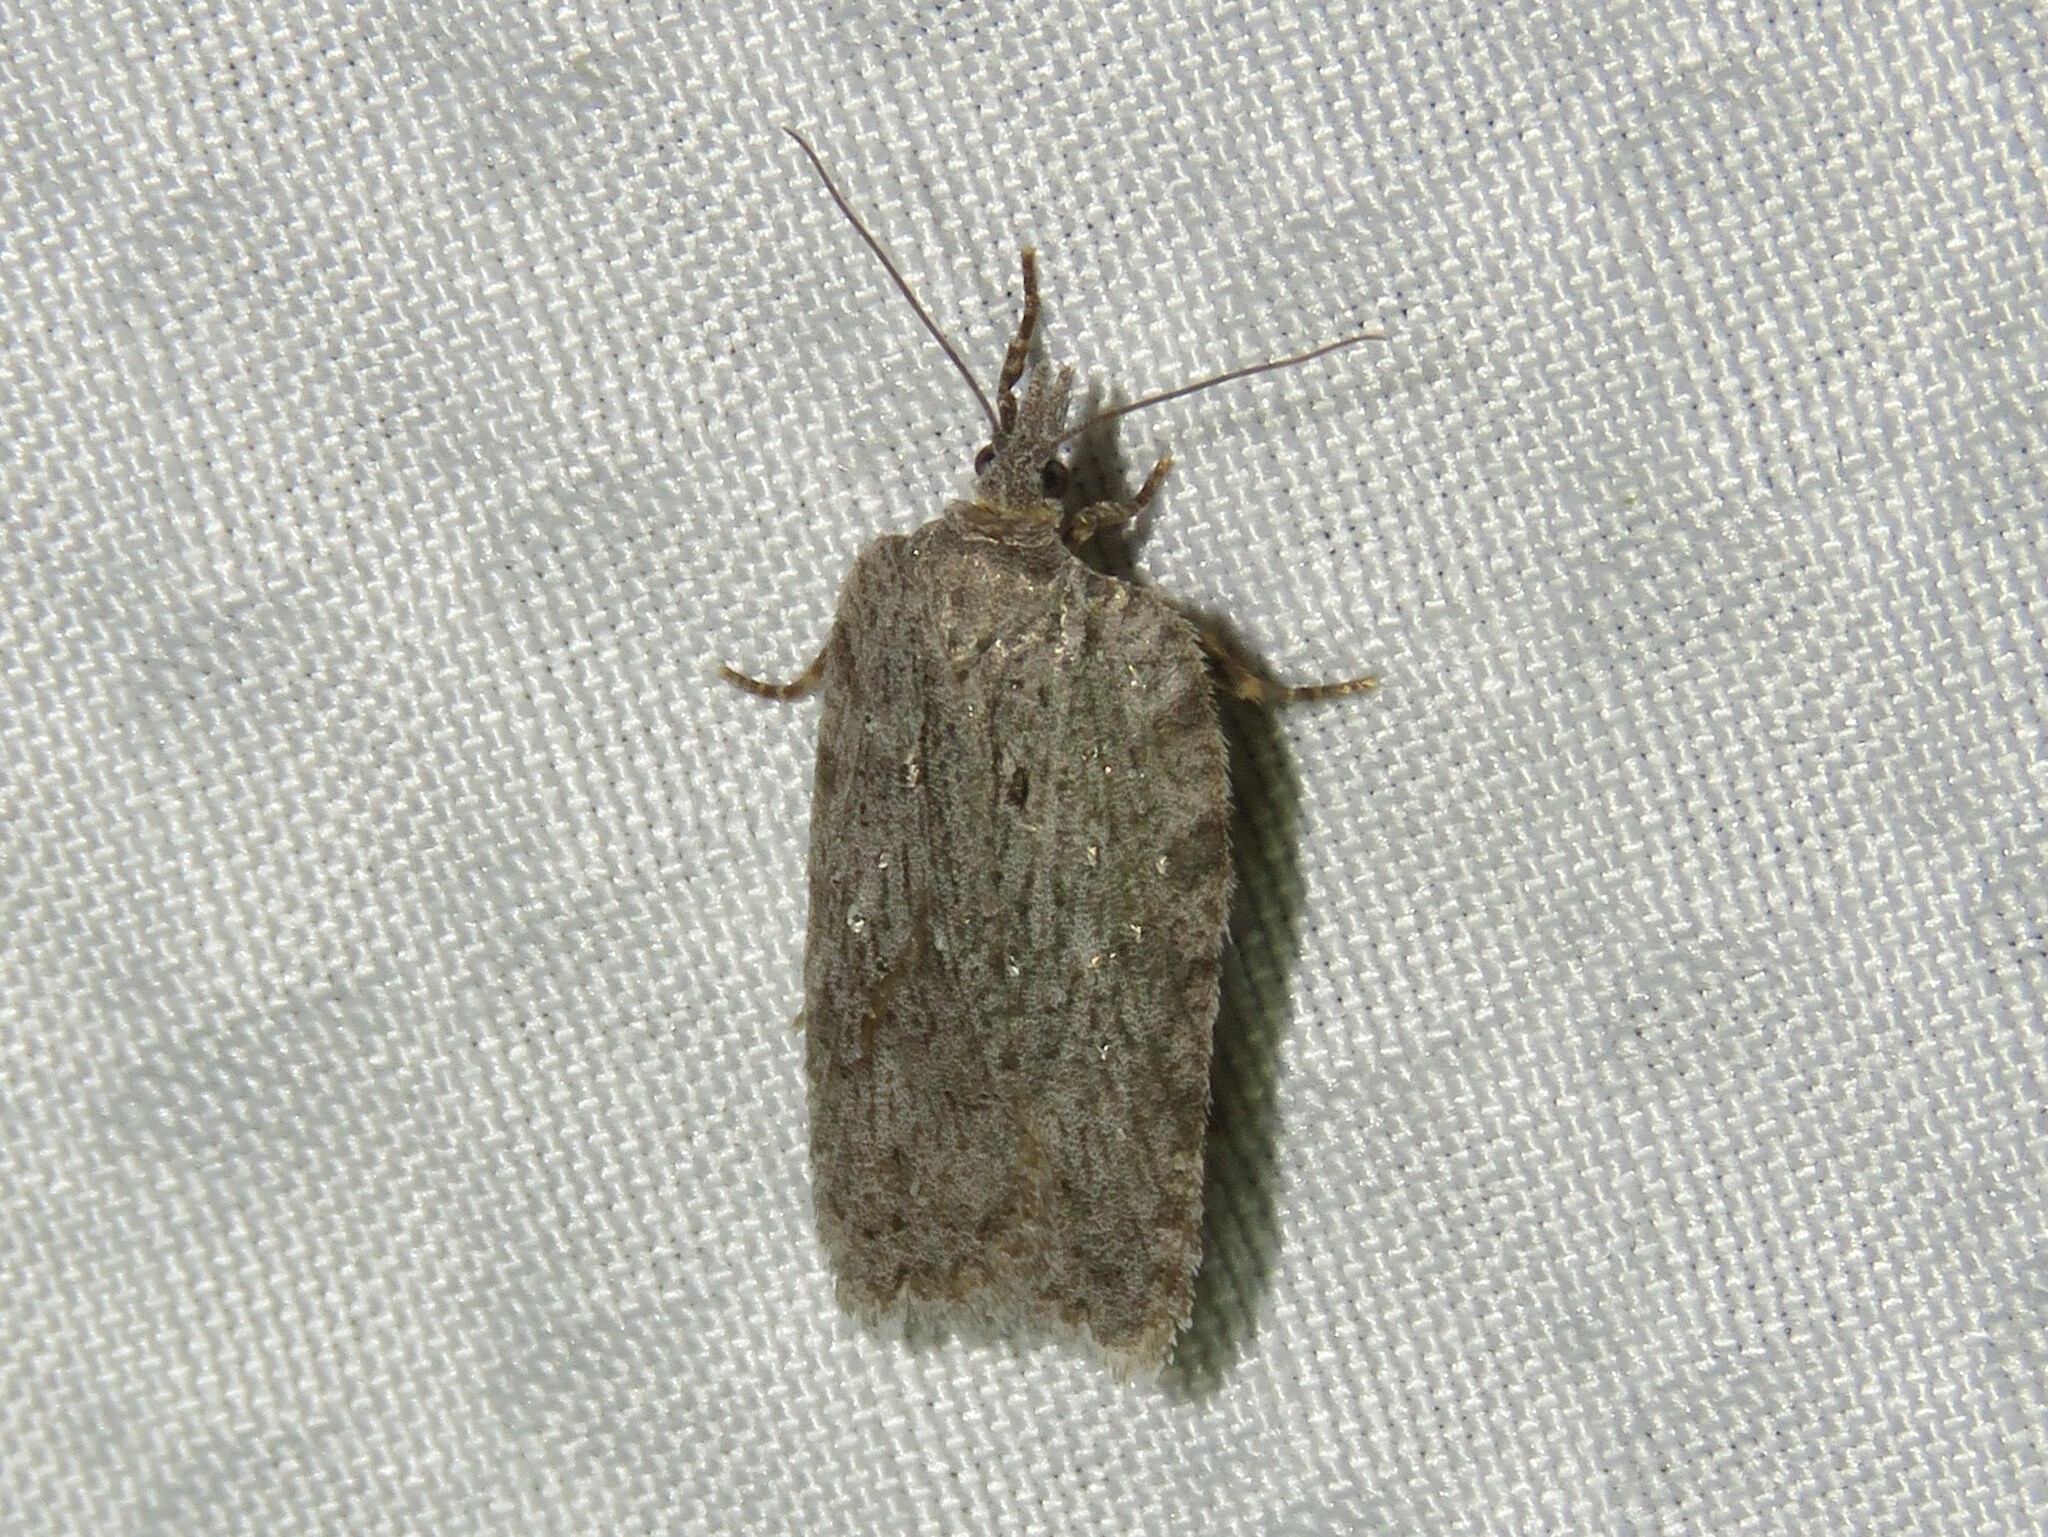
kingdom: Animalia
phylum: Arthropoda
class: Insecta
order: Lepidoptera
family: Tortricidae
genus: Acleris
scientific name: Acleris maximana
